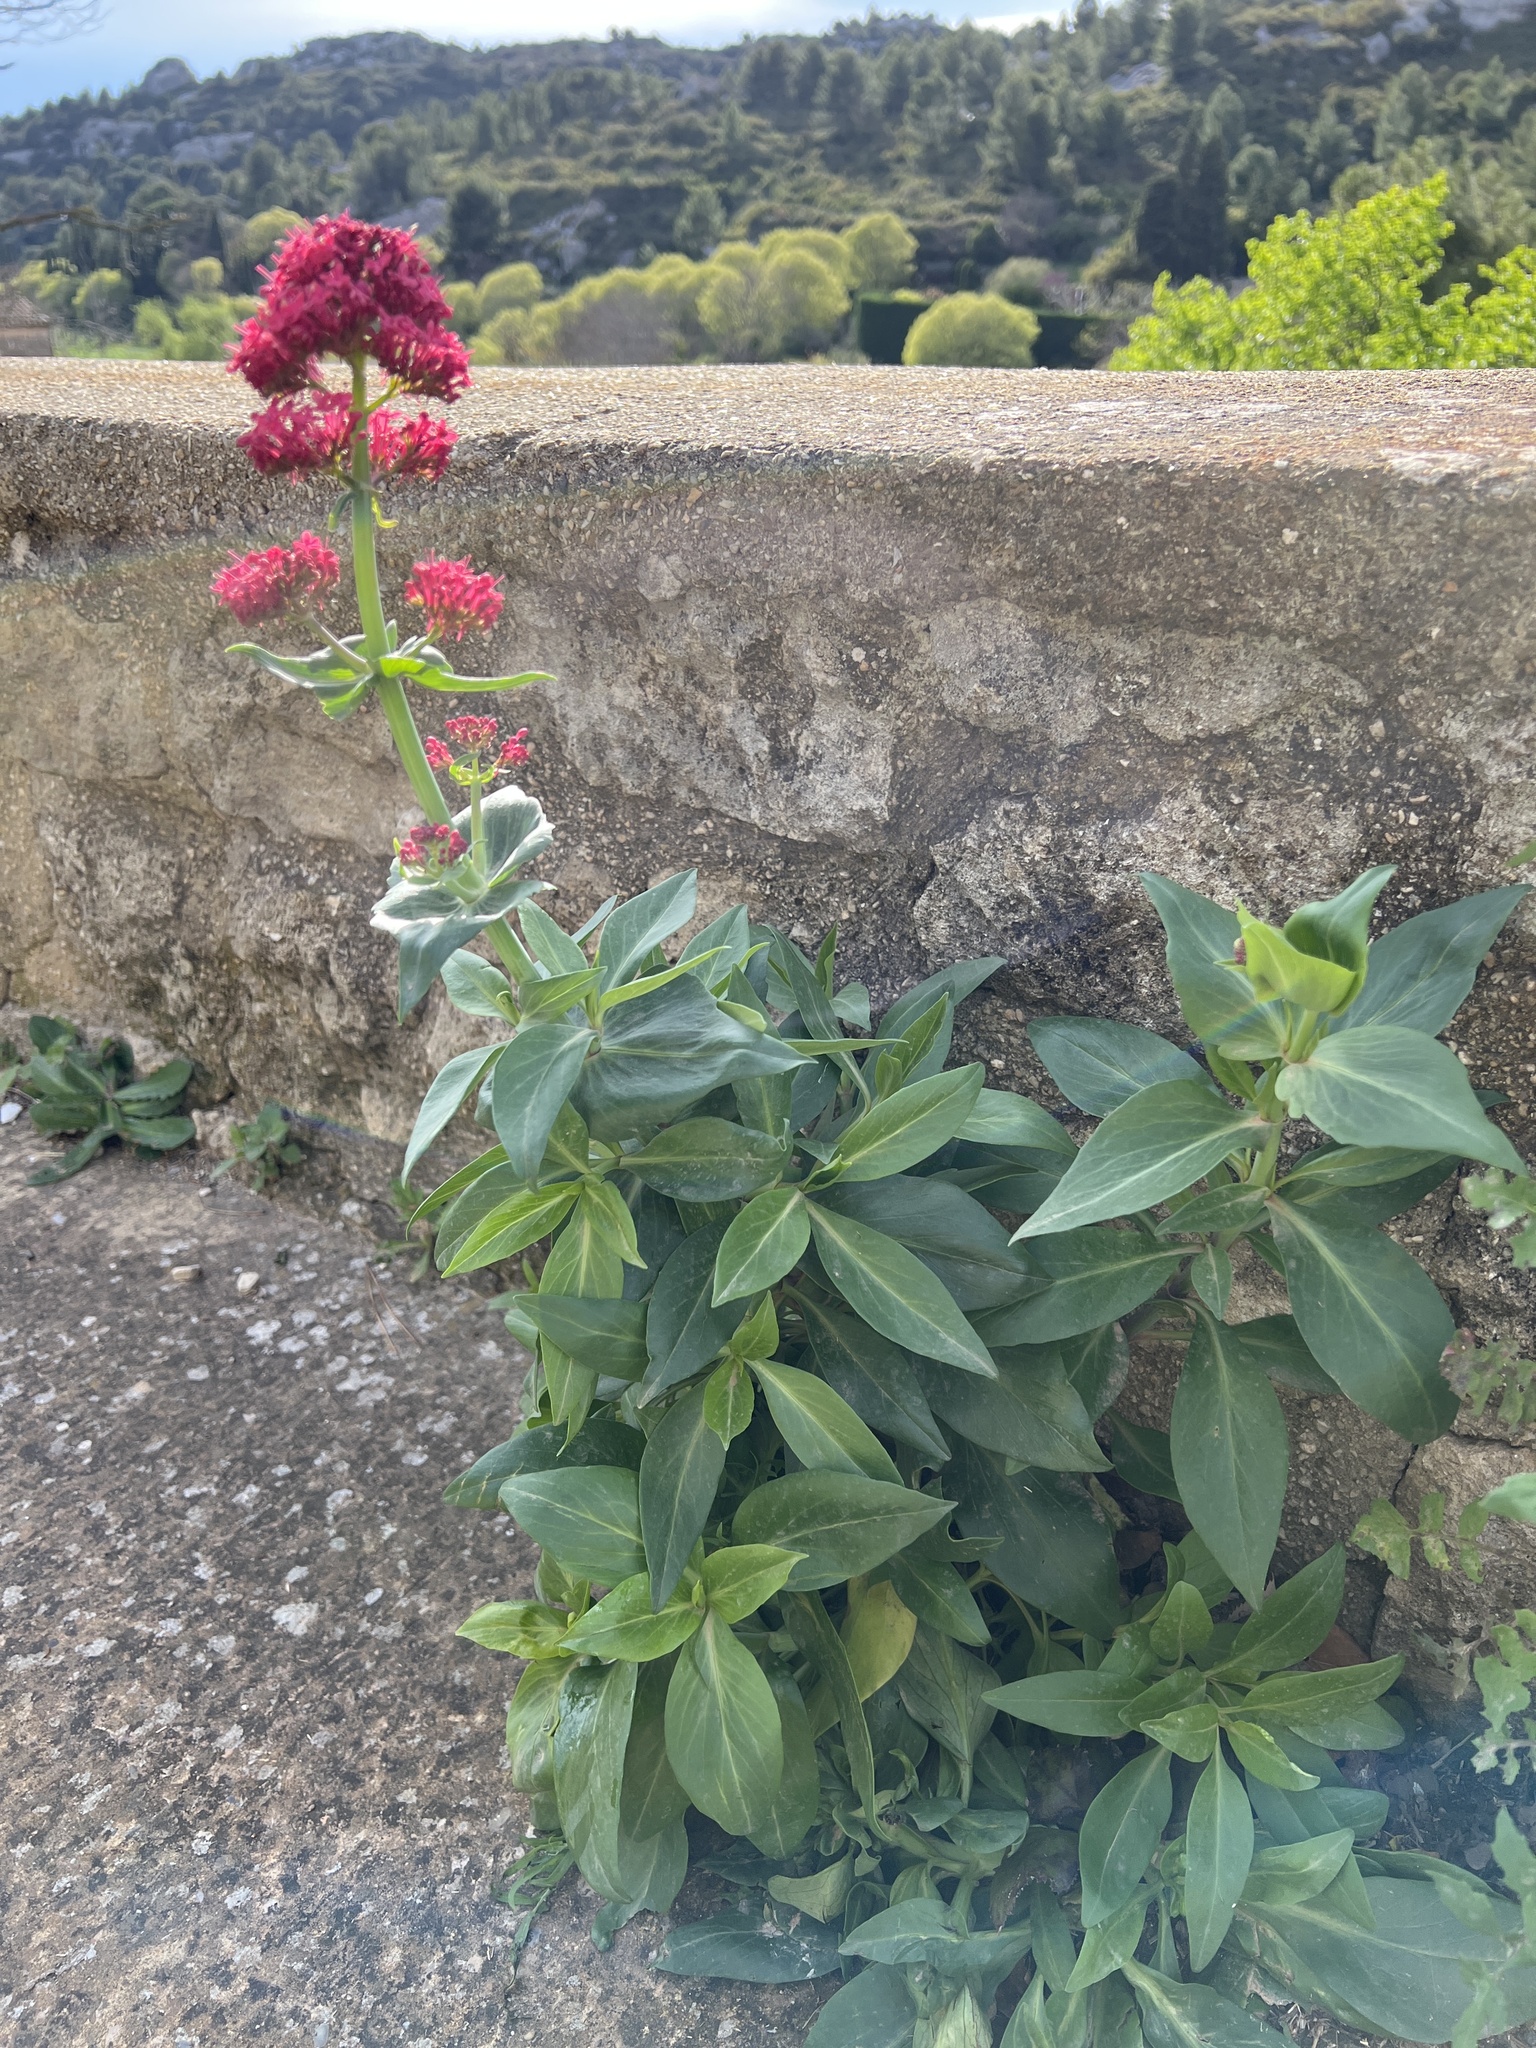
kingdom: Plantae
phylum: Tracheophyta
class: Magnoliopsida
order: Dipsacales
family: Caprifoliaceae
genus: Centranthus
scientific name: Centranthus ruber
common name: Red valerian
